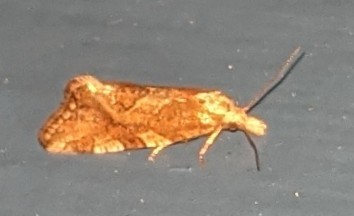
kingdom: Animalia
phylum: Arthropoda
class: Insecta
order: Lepidoptera
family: Tortricidae
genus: Aethes
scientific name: Aethes sexdentata
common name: Six-toothed aethes
